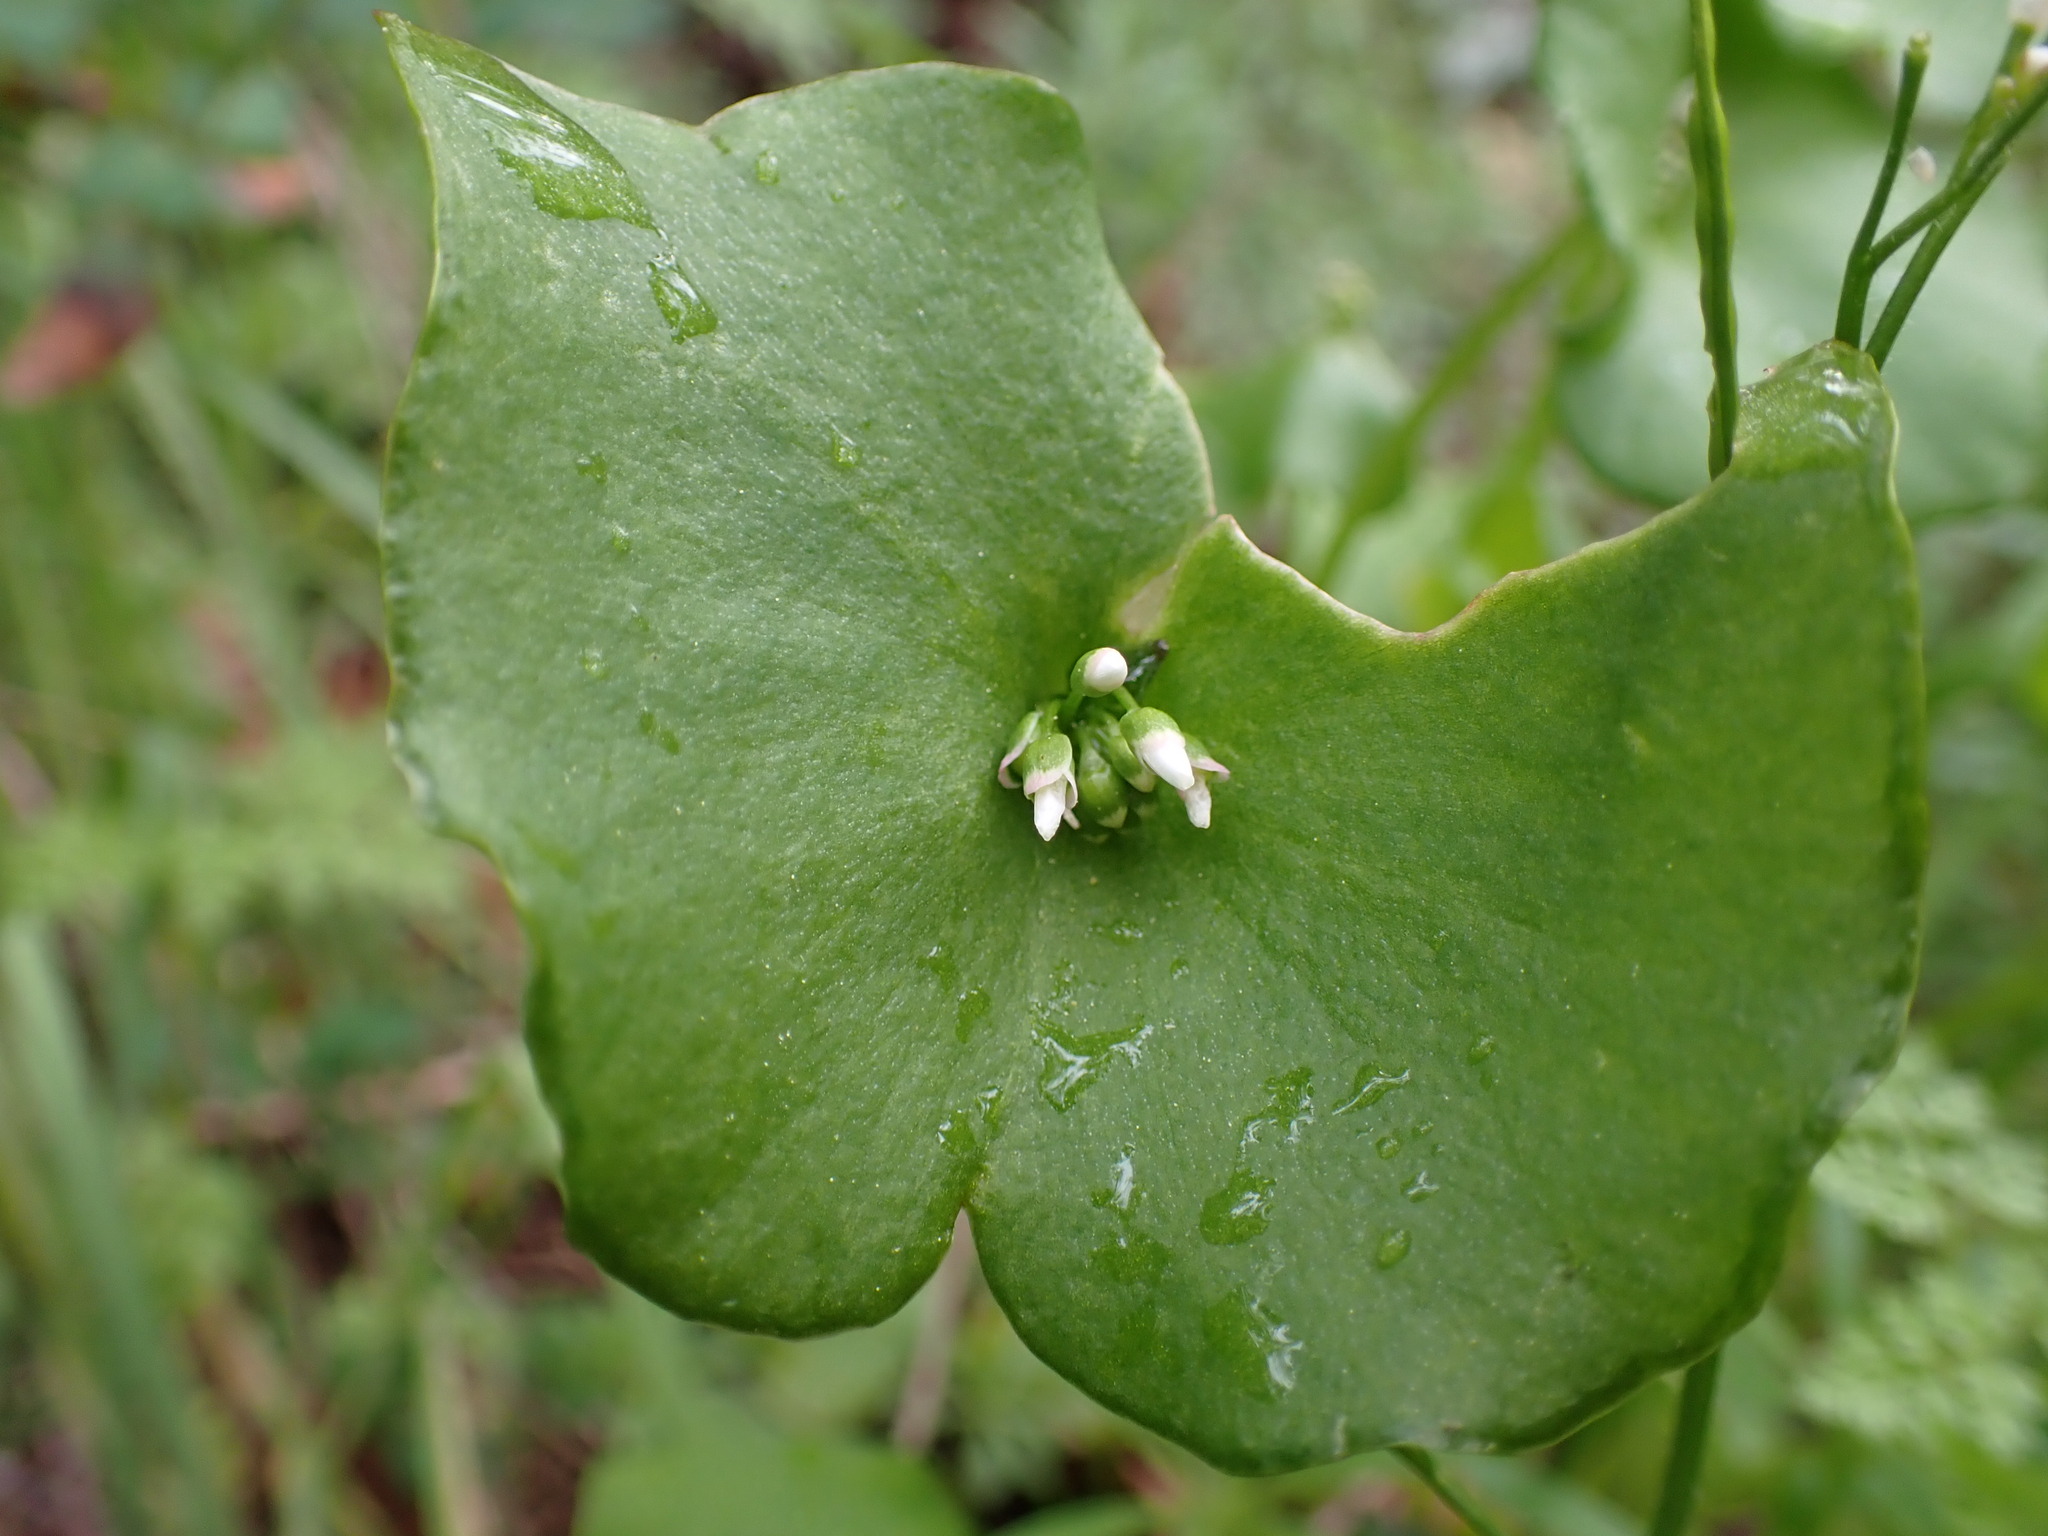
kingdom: Plantae
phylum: Tracheophyta
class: Magnoliopsida
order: Caryophyllales
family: Montiaceae
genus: Claytonia
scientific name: Claytonia perfoliata
